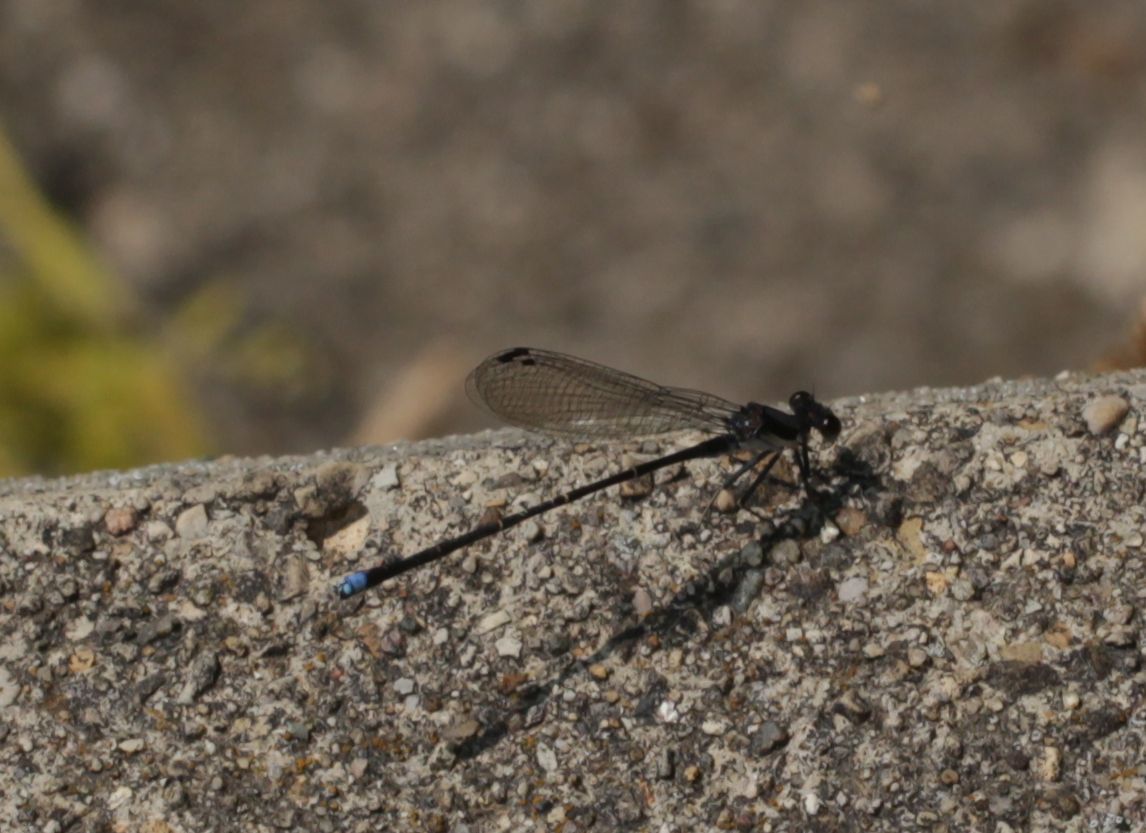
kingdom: Animalia
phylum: Arthropoda
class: Insecta
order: Odonata
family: Coenagrionidae
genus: Argia
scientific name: Argia tibialis
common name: Blue-tipped dancer
